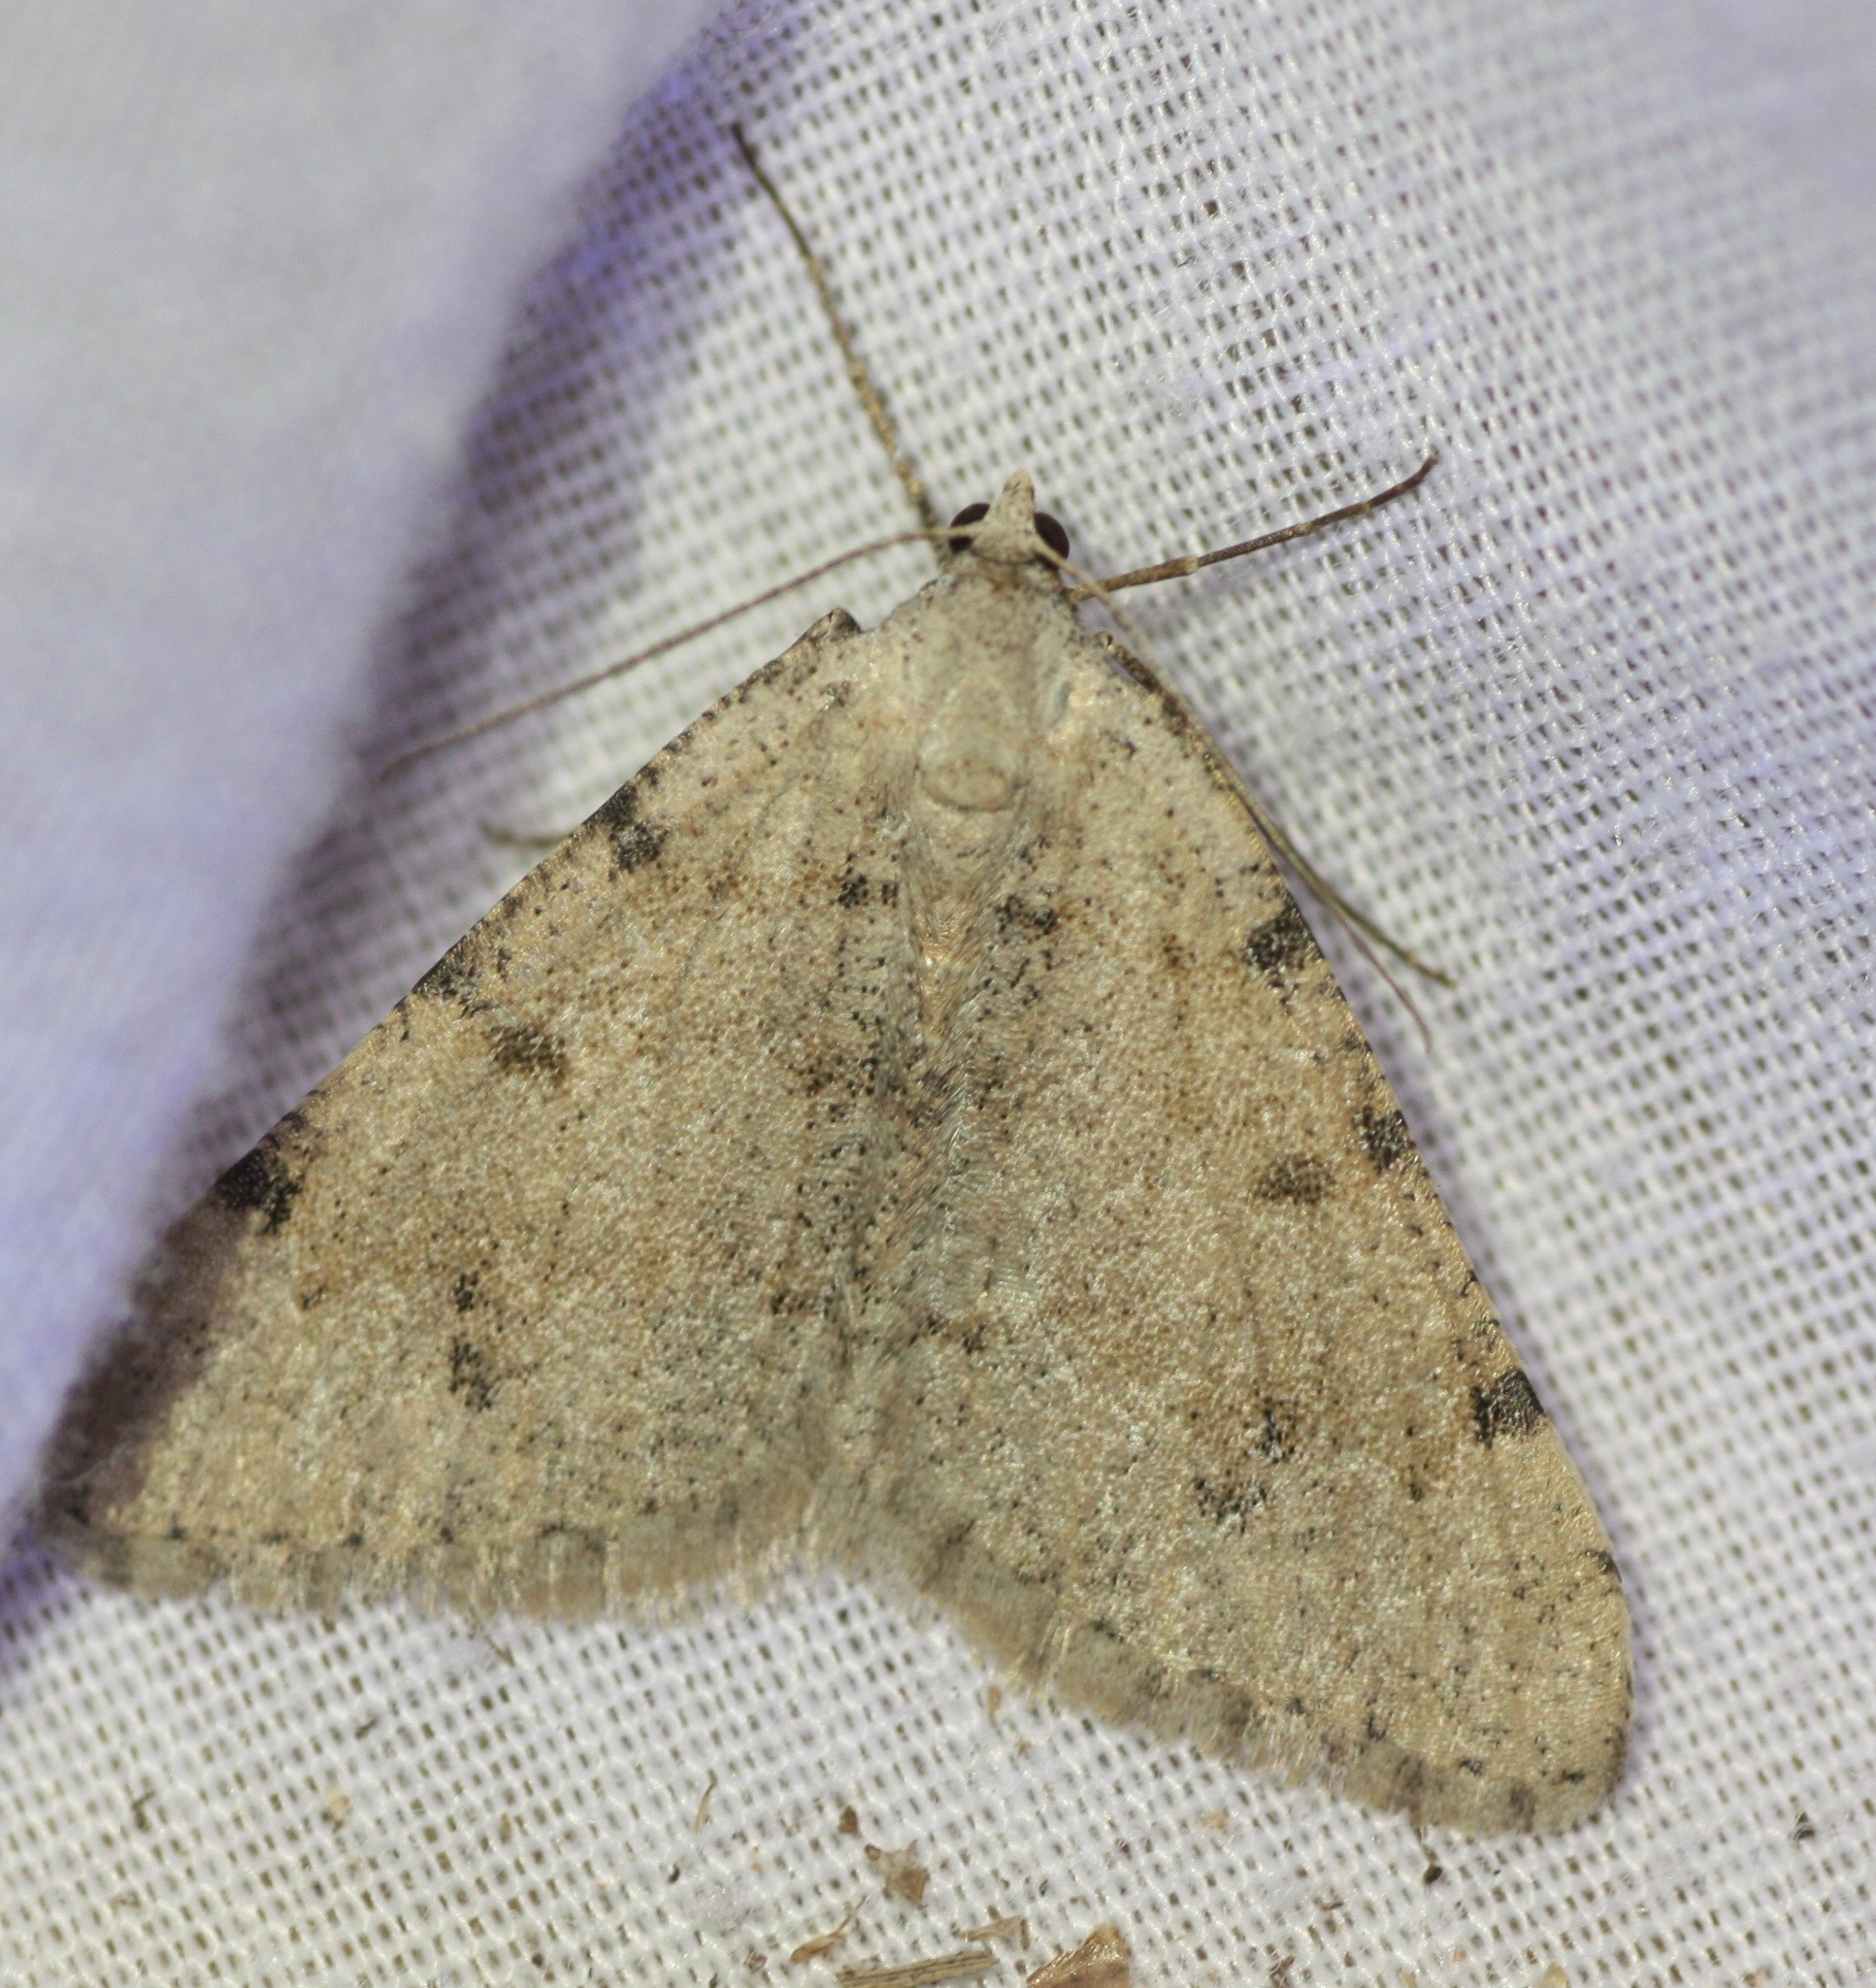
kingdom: Animalia
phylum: Arthropoda
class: Insecta
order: Lepidoptera
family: Geometridae
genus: Digrammia
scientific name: Digrammia colorata
